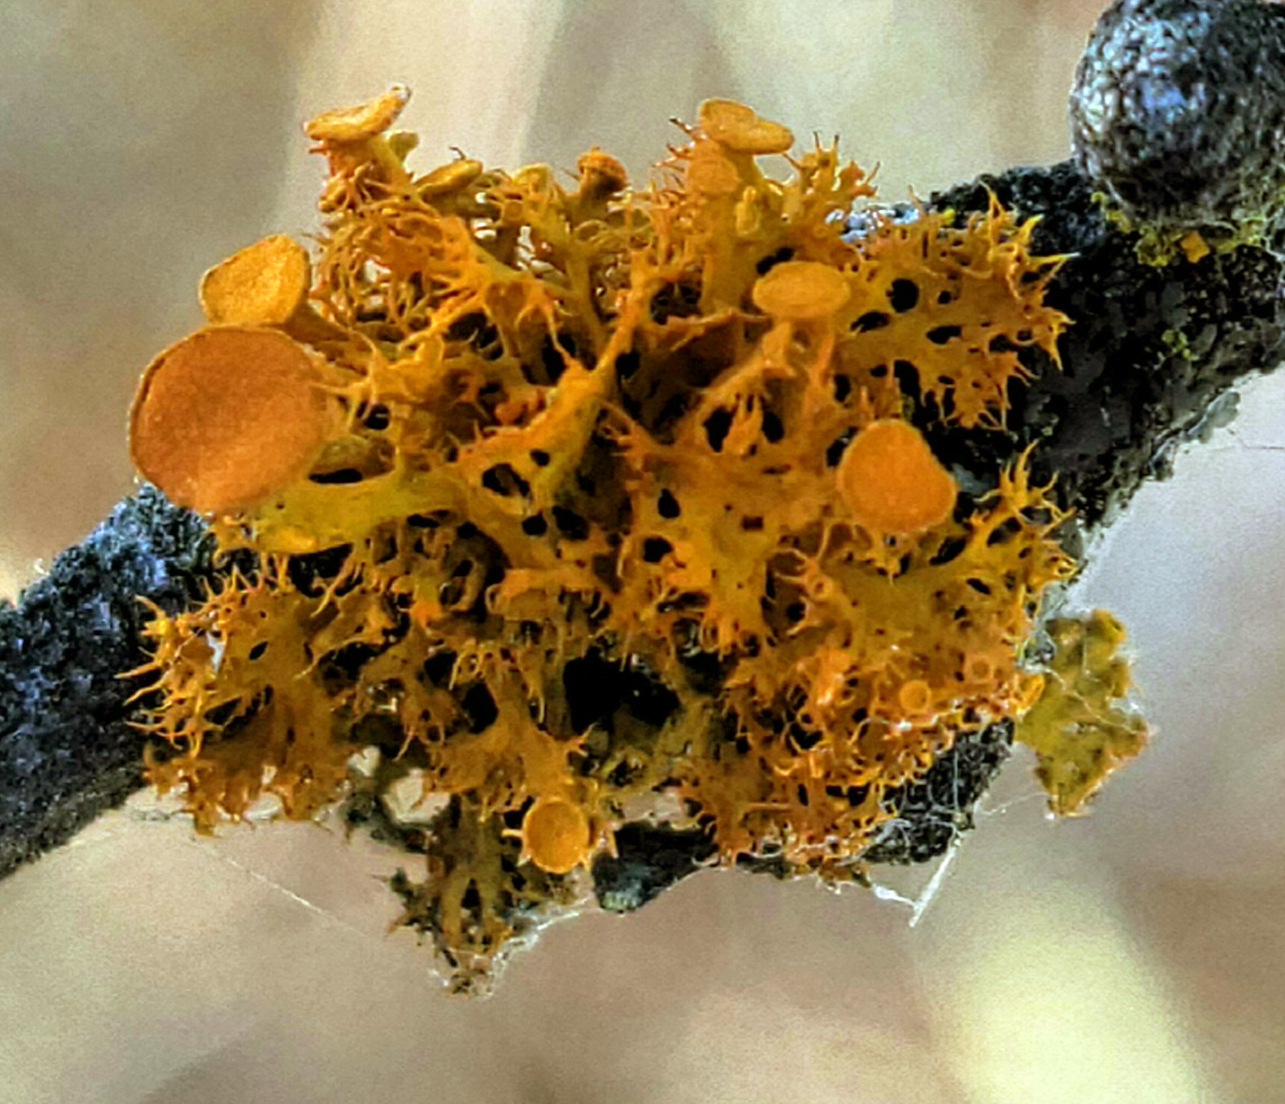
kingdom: Fungi
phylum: Ascomycota
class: Lecanoromycetes
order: Teloschistales
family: Teloschistaceae
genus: Niorma
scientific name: Niorma chrysophthalma
